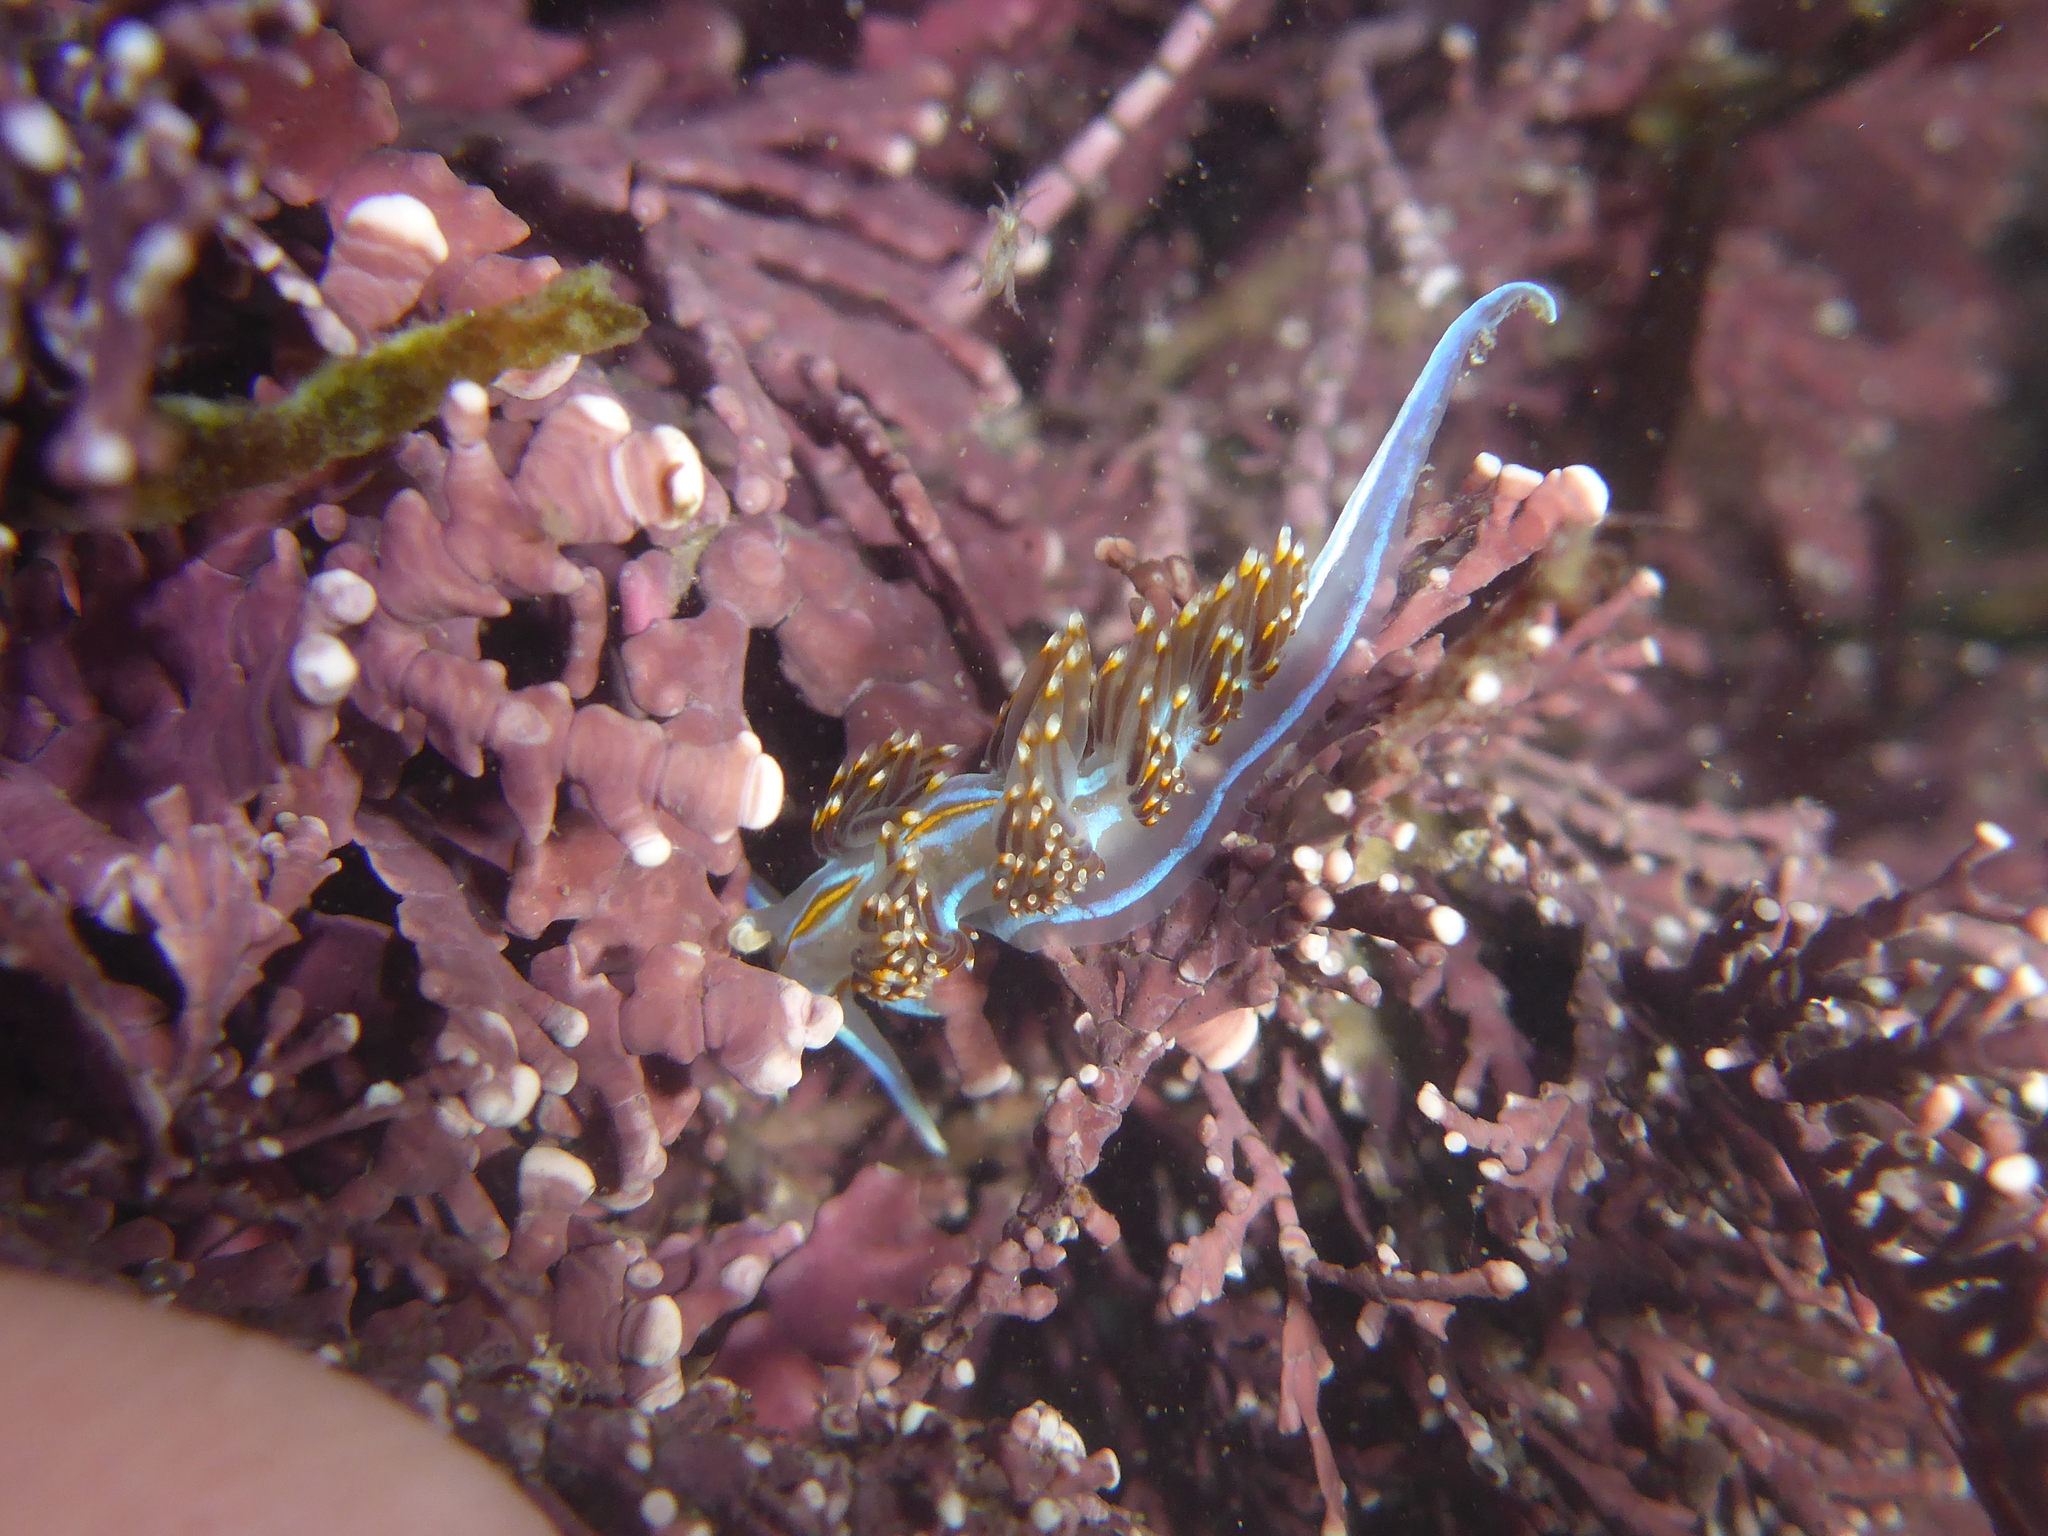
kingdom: Animalia
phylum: Mollusca
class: Gastropoda
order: Nudibranchia
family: Myrrhinidae
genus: Hermissenda
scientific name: Hermissenda opalescens
